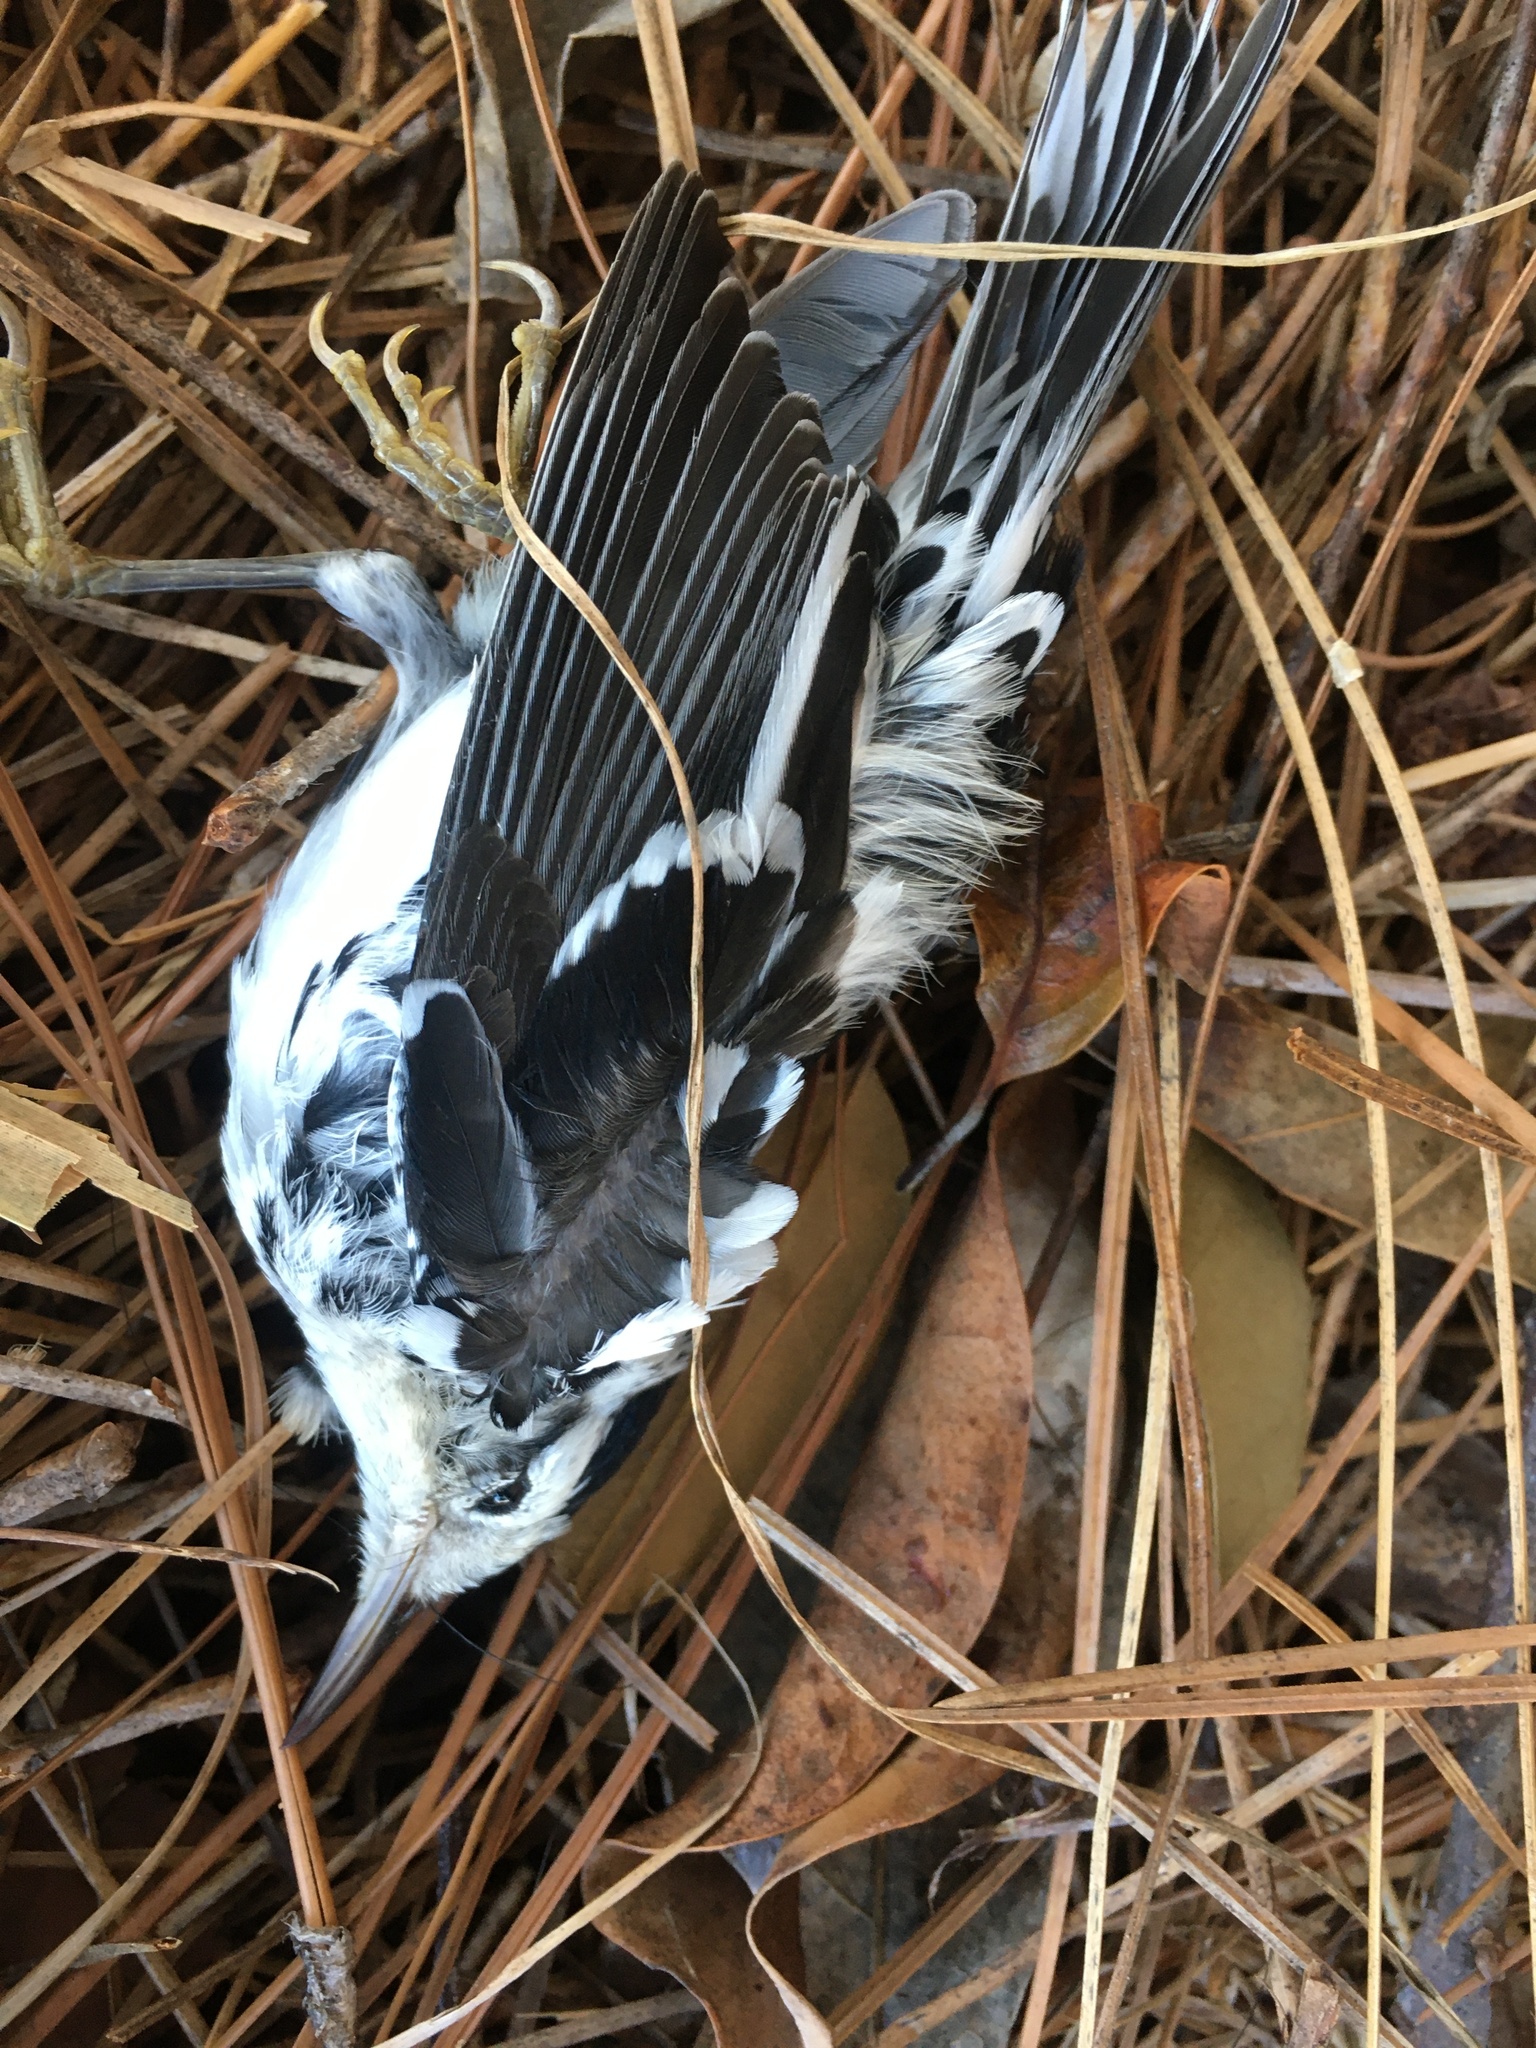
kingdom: Animalia
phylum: Chordata
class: Aves
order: Passeriformes
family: Parulidae
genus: Mniotilta
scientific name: Mniotilta varia
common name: Black-and-white warbler
